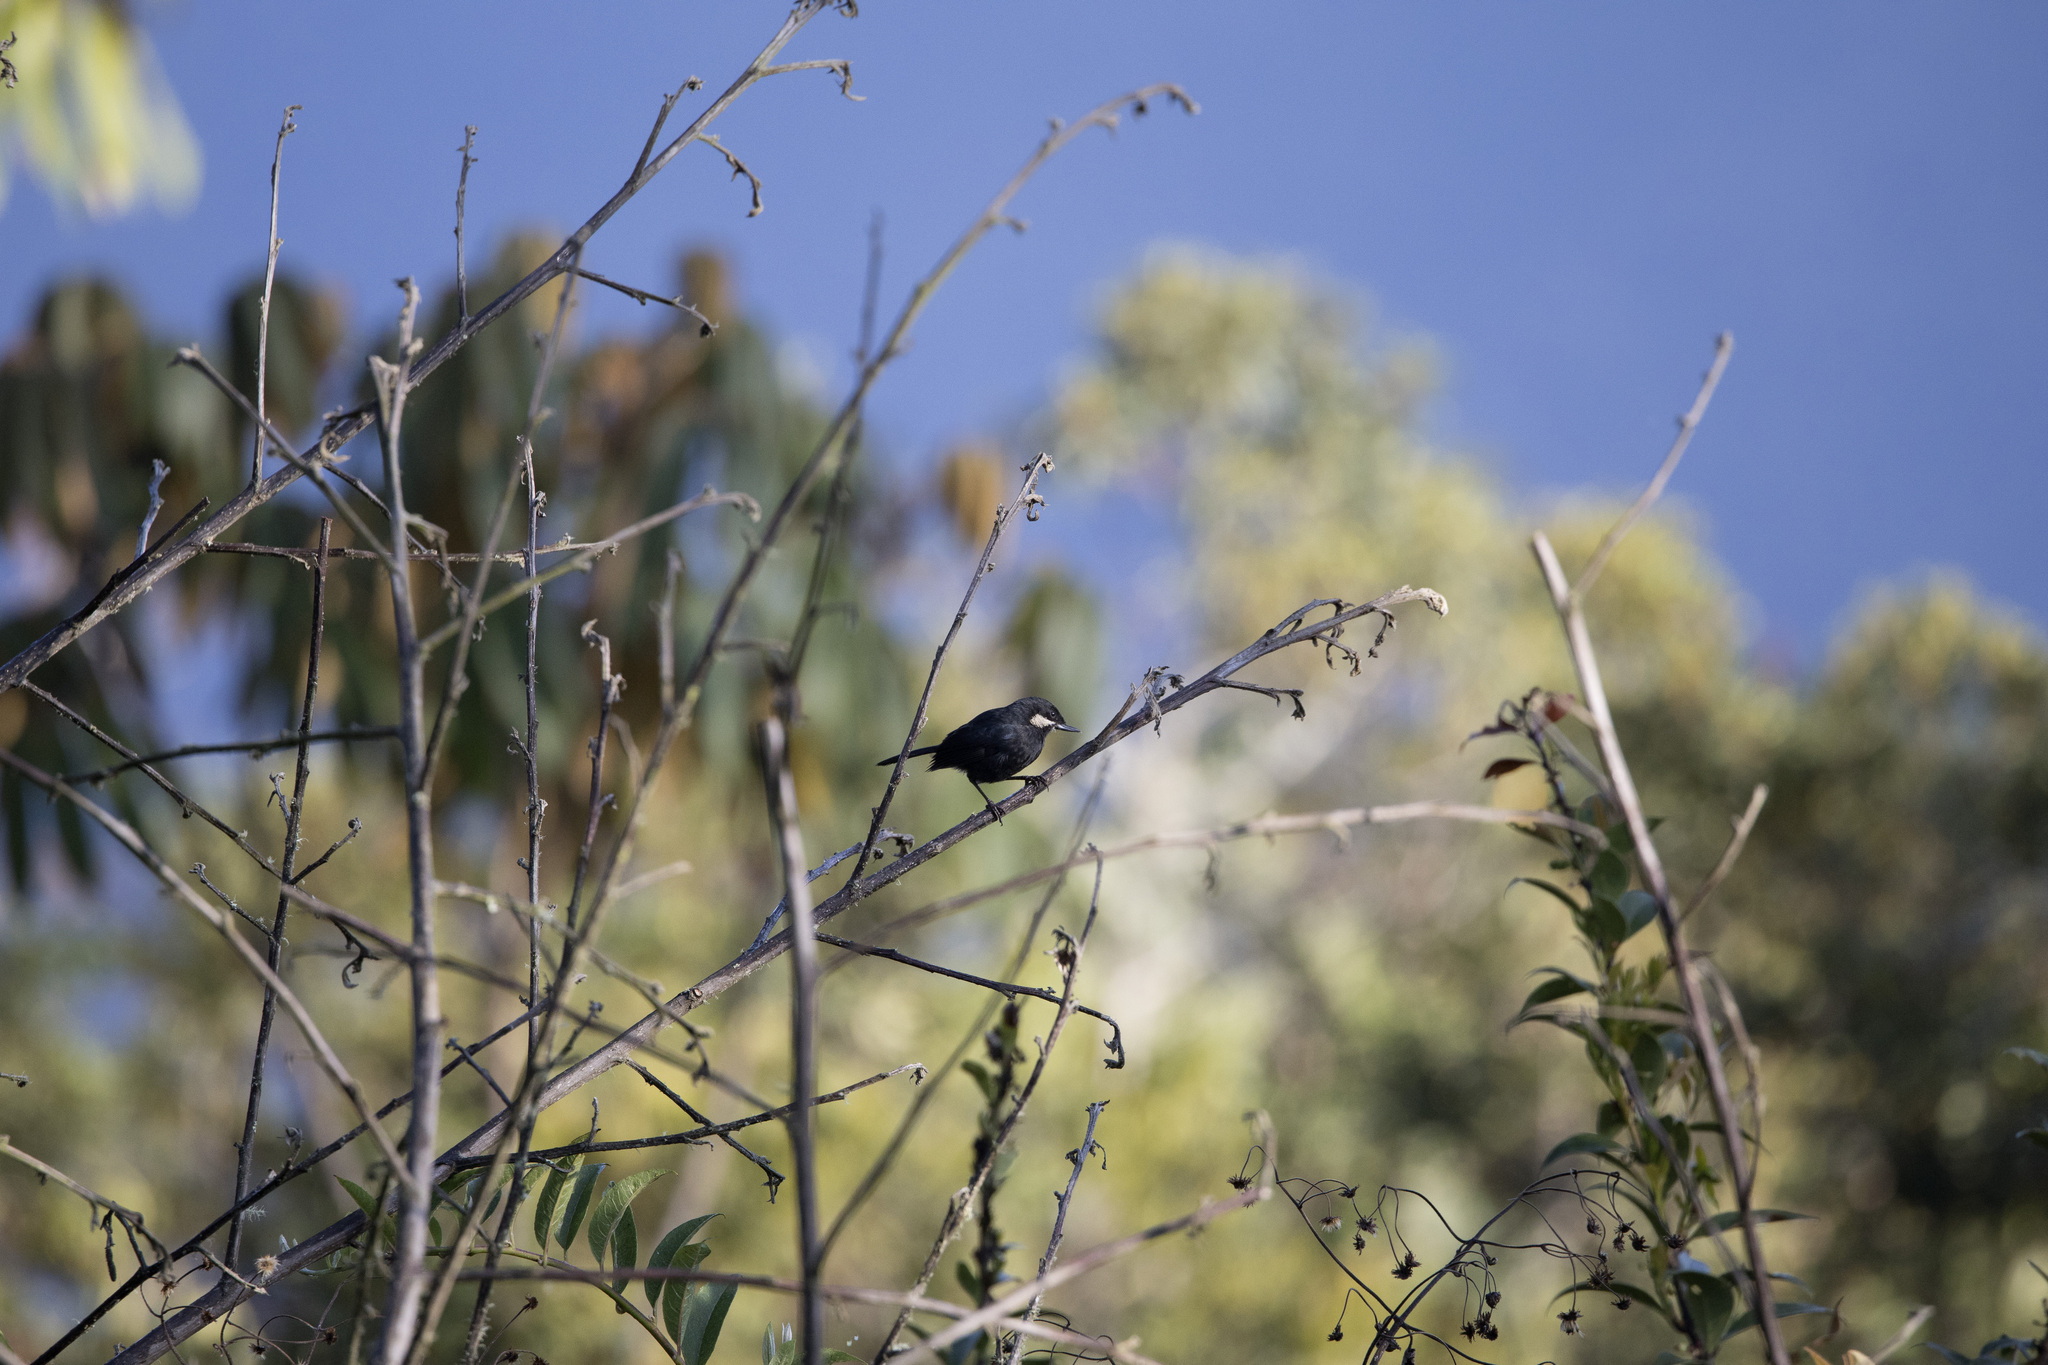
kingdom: Animalia
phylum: Chordata
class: Aves
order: Passeriformes
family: Thraupidae
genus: Diglossa
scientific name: Diglossa mystacalis
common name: Moustached flowerpiercer
